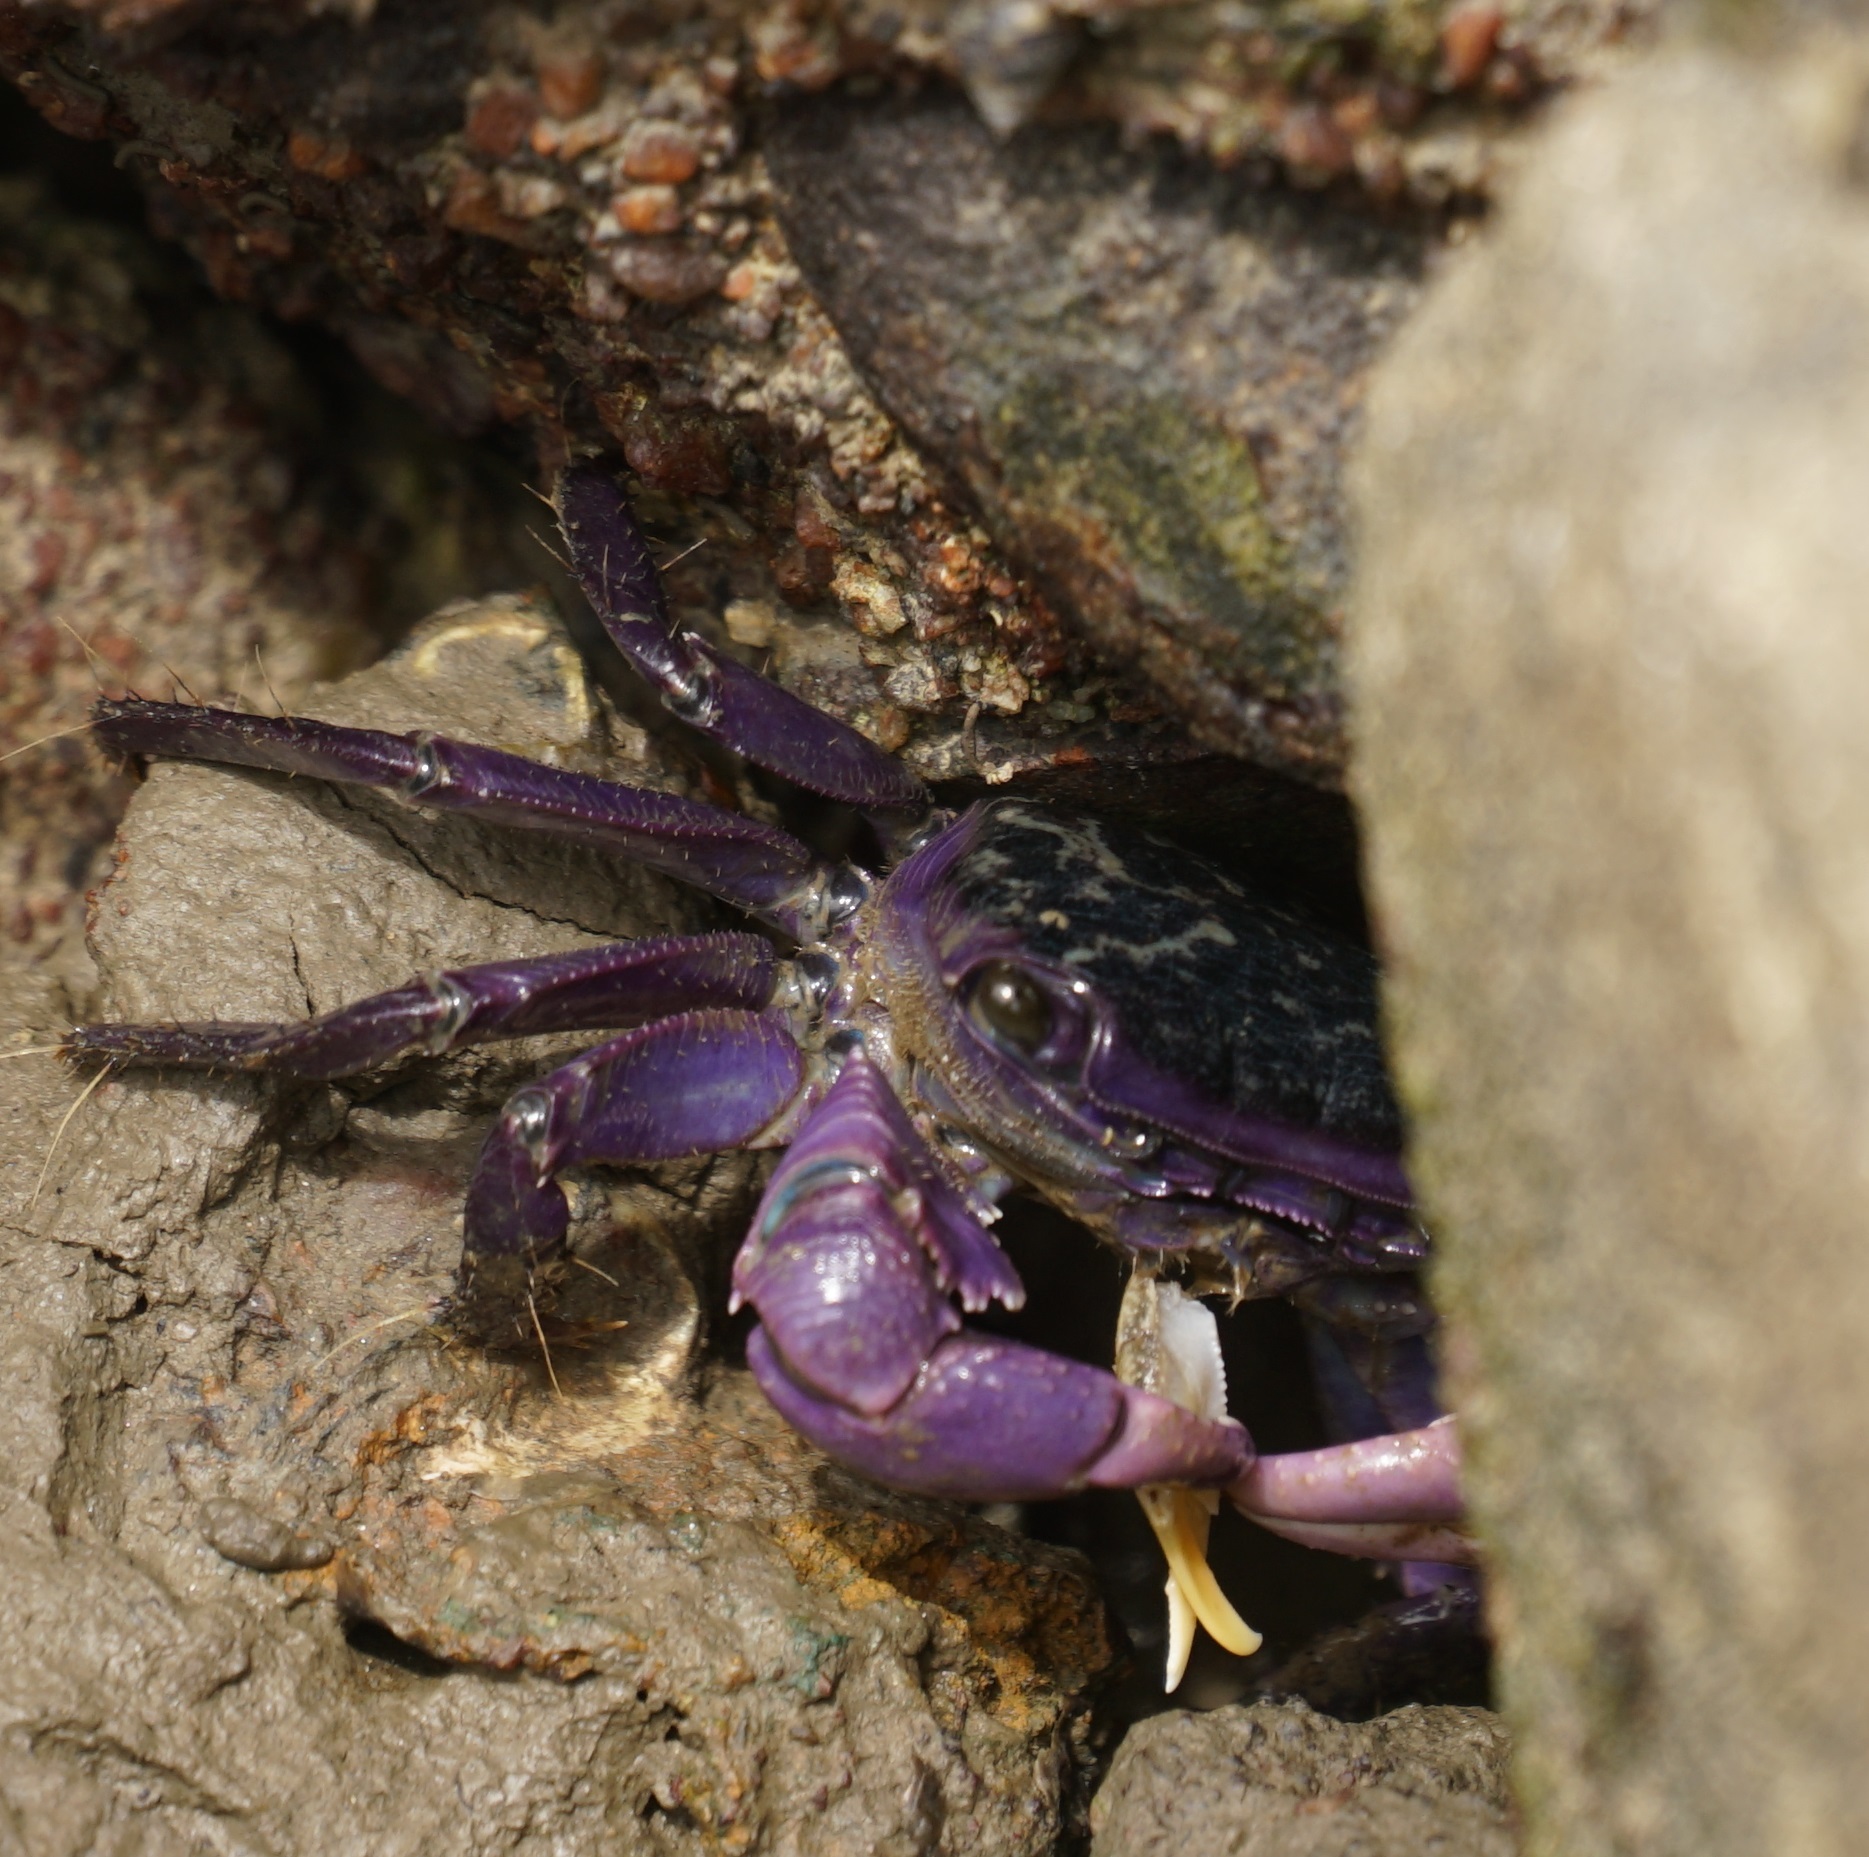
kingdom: Animalia
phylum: Arthropoda
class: Malacostraca
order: Decapoda
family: Grapsidae
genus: Metopograpsus
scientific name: Metopograpsus frontalis
